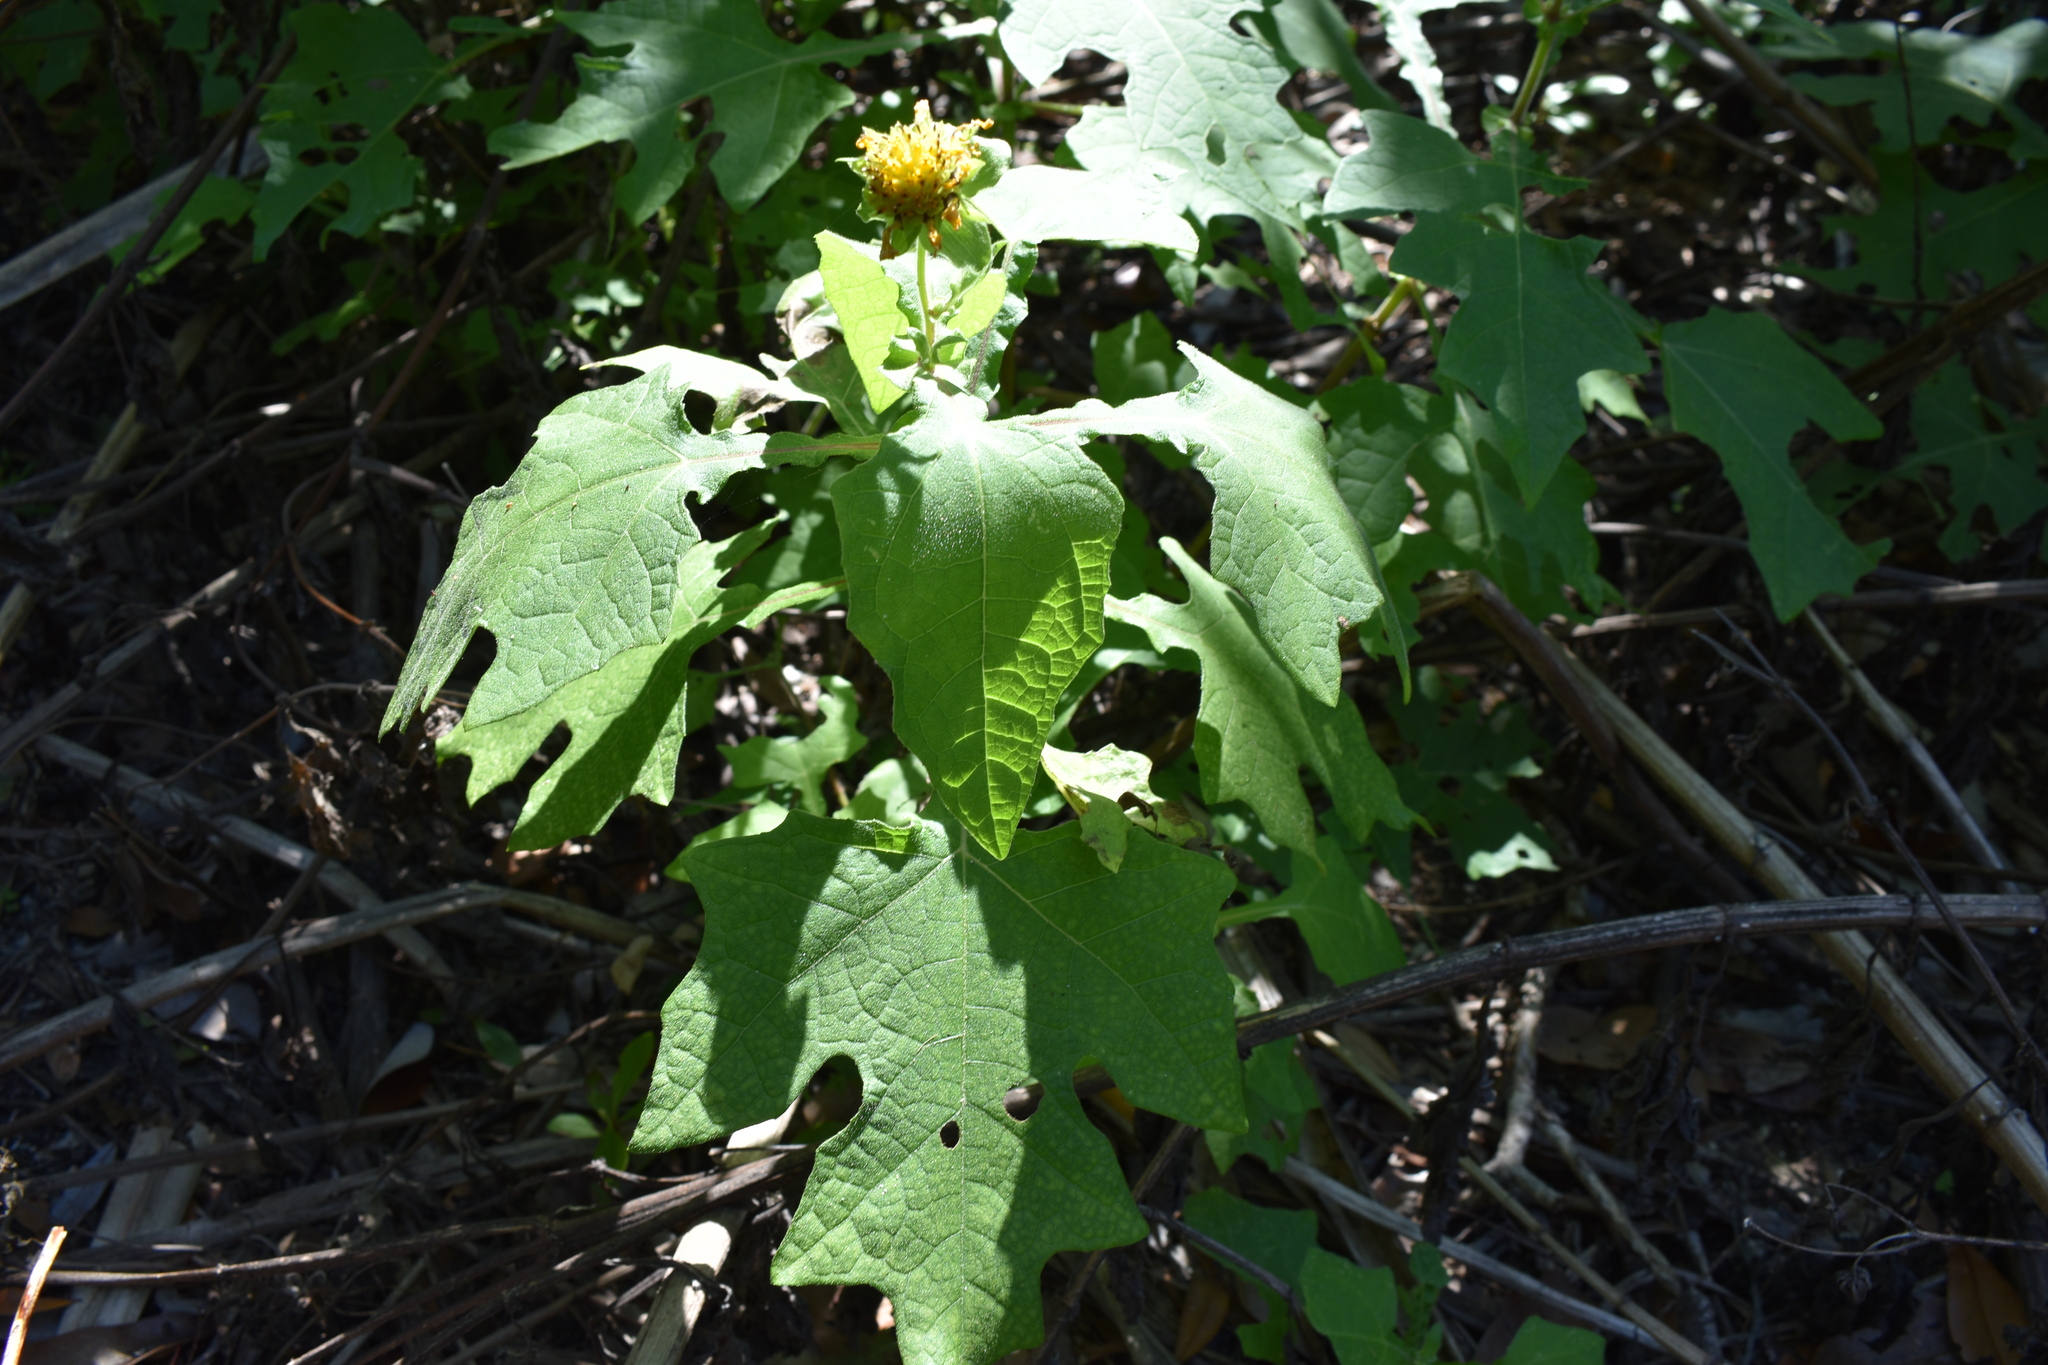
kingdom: Plantae
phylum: Tracheophyta
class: Magnoliopsida
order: Asterales
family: Asteraceae
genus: Smallanthus
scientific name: Smallanthus uvedalia
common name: Bear's-foot
